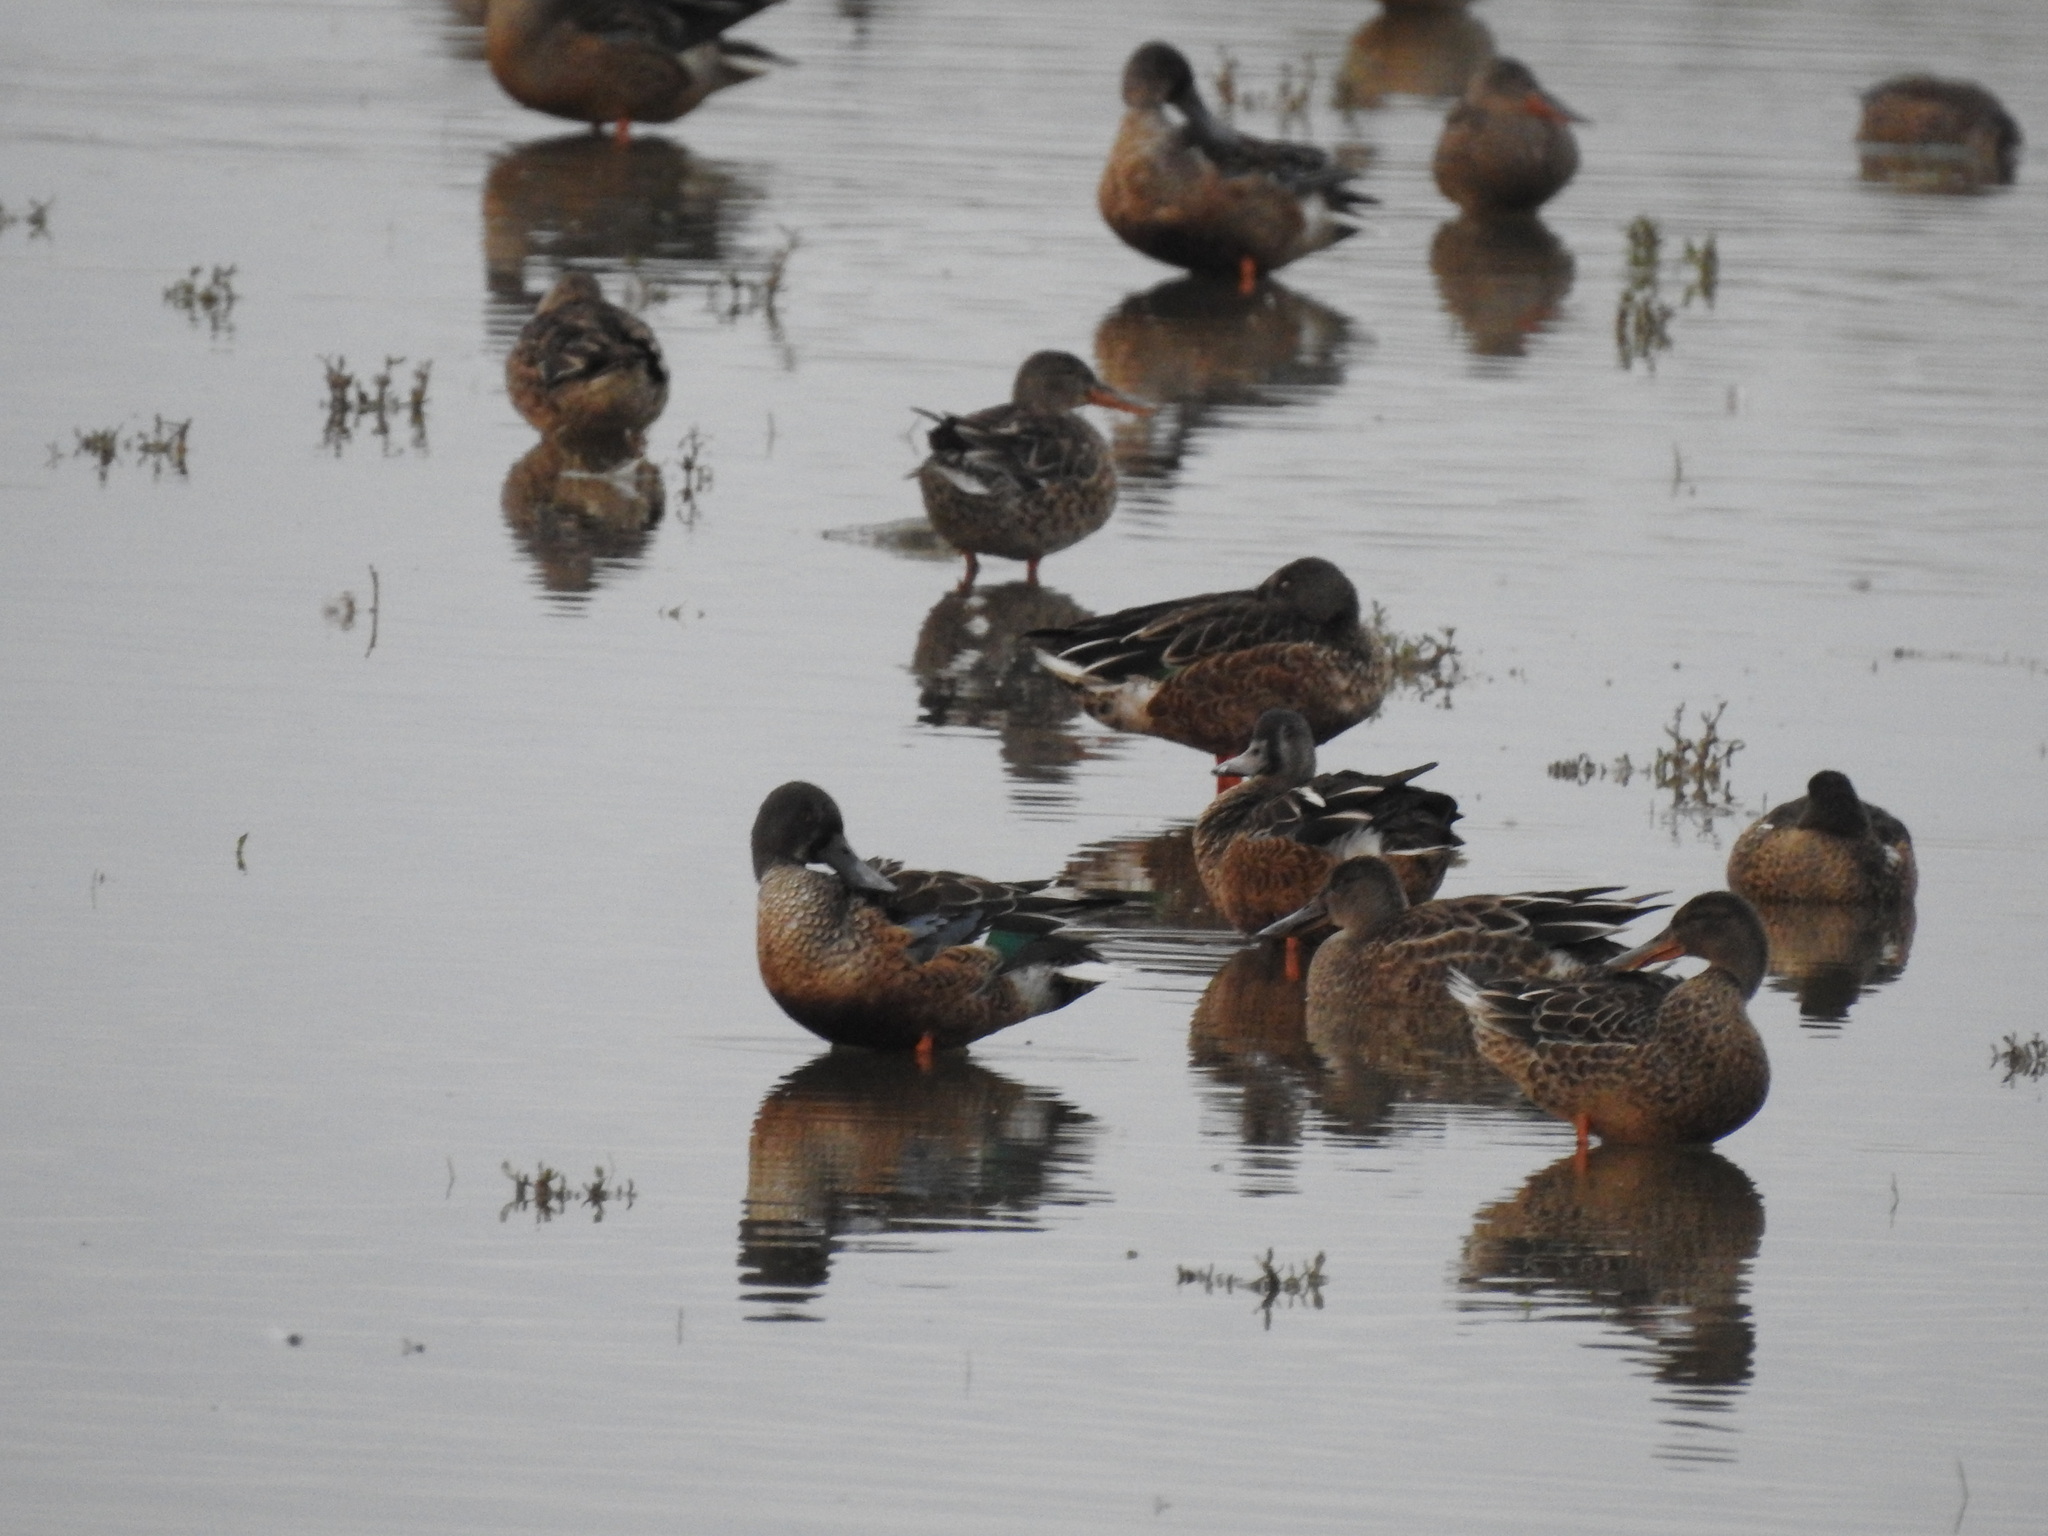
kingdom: Animalia
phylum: Chordata
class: Aves
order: Anseriformes
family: Anatidae
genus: Spatula
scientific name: Spatula clypeata
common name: Northern shoveler
